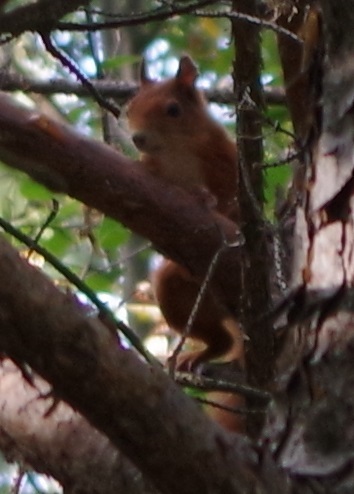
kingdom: Animalia
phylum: Chordata
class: Mammalia
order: Rodentia
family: Sciuridae
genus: Sciurus
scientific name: Sciurus vulgaris
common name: Eurasian red squirrel
